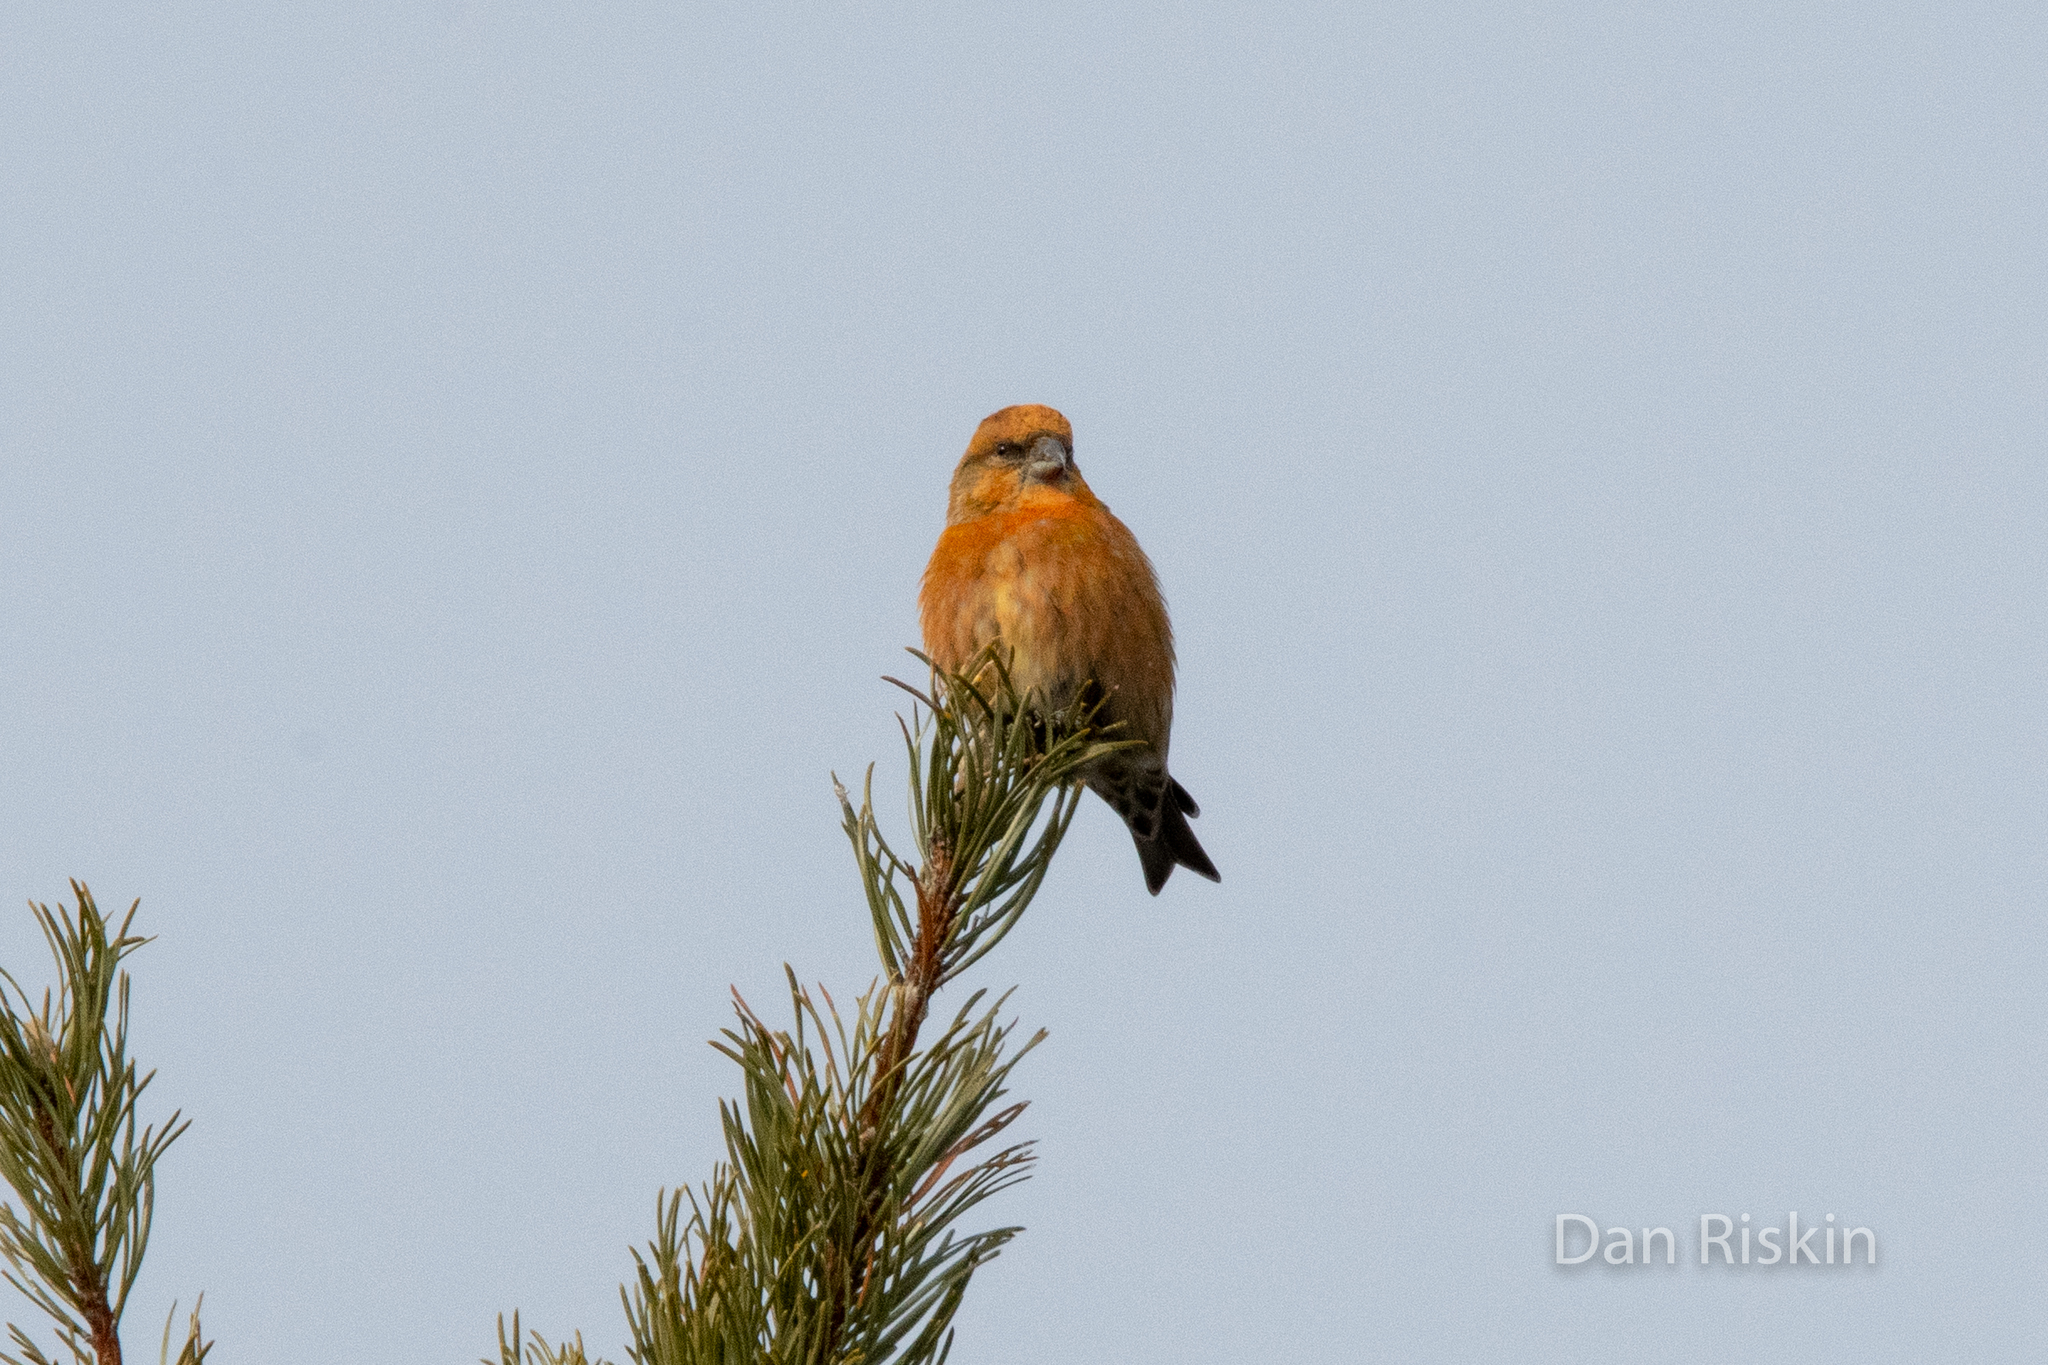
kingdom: Animalia
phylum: Chordata
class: Aves
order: Passeriformes
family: Fringillidae
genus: Loxia
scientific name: Loxia curvirostra
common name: Red crossbill
